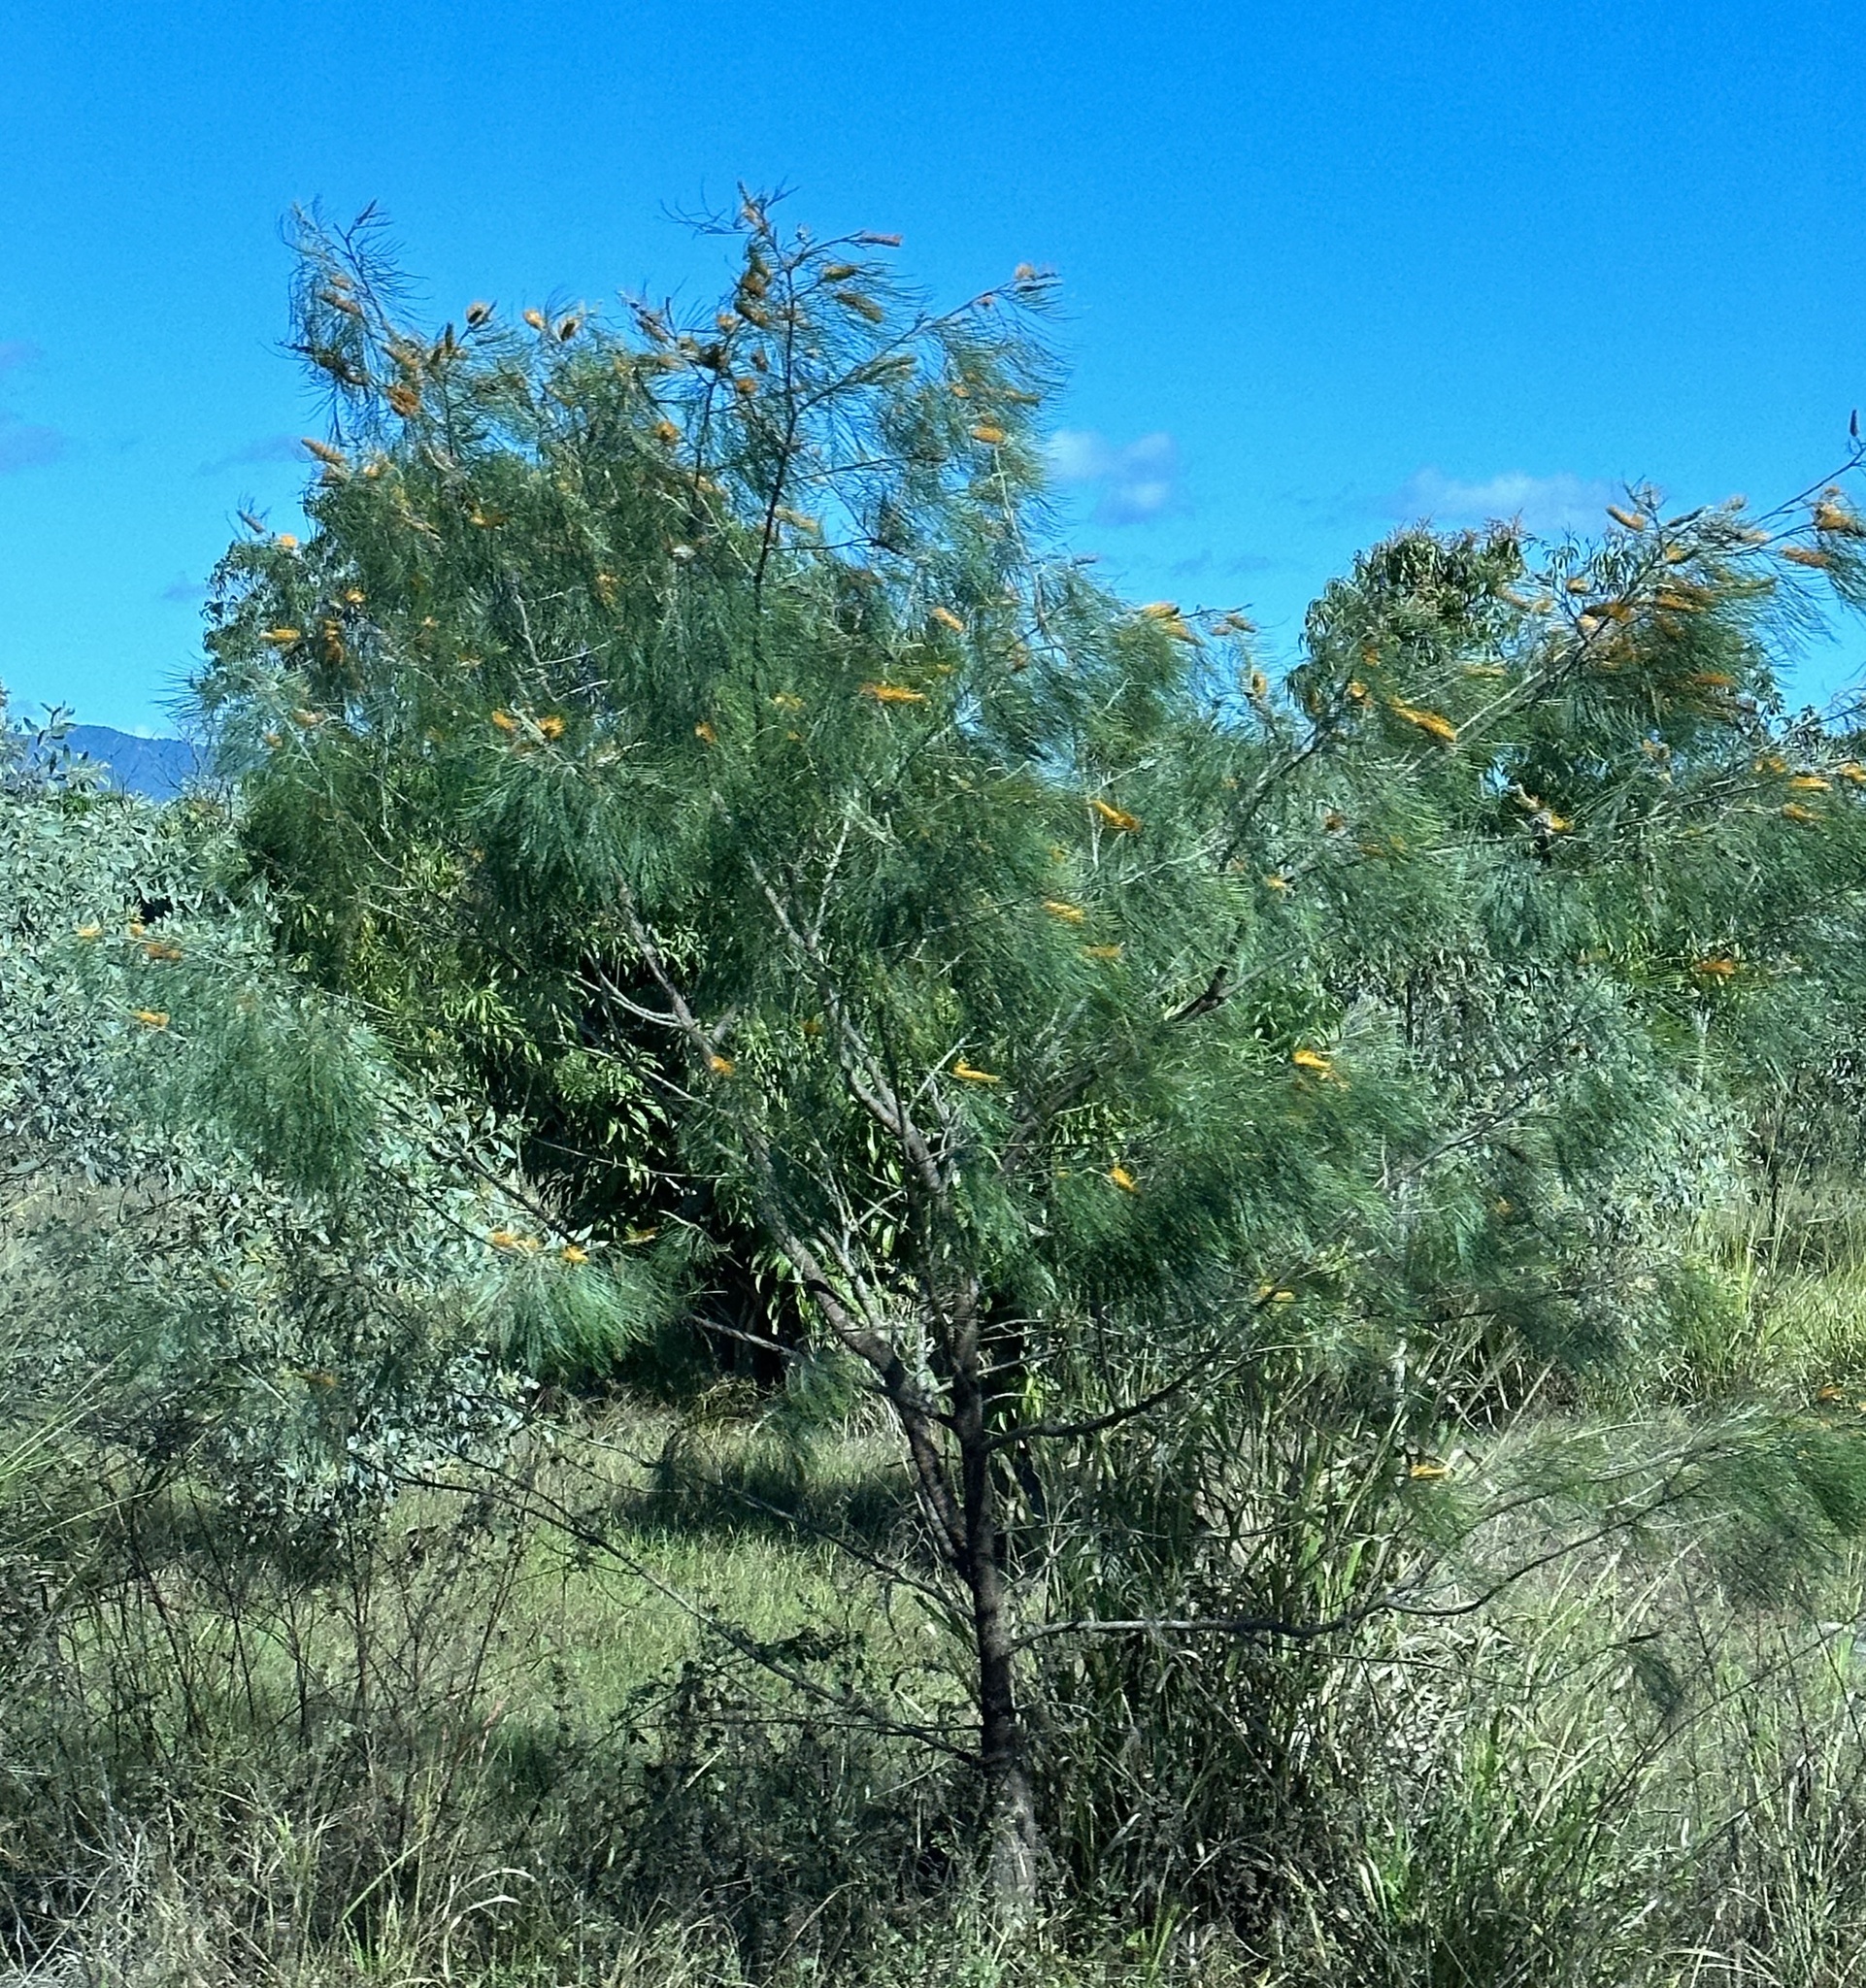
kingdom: Plantae
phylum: Tracheophyta
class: Magnoliopsida
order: Proteales
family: Proteaceae
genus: Grevillea
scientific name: Grevillea pteridifolia
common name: Golden grevillea
